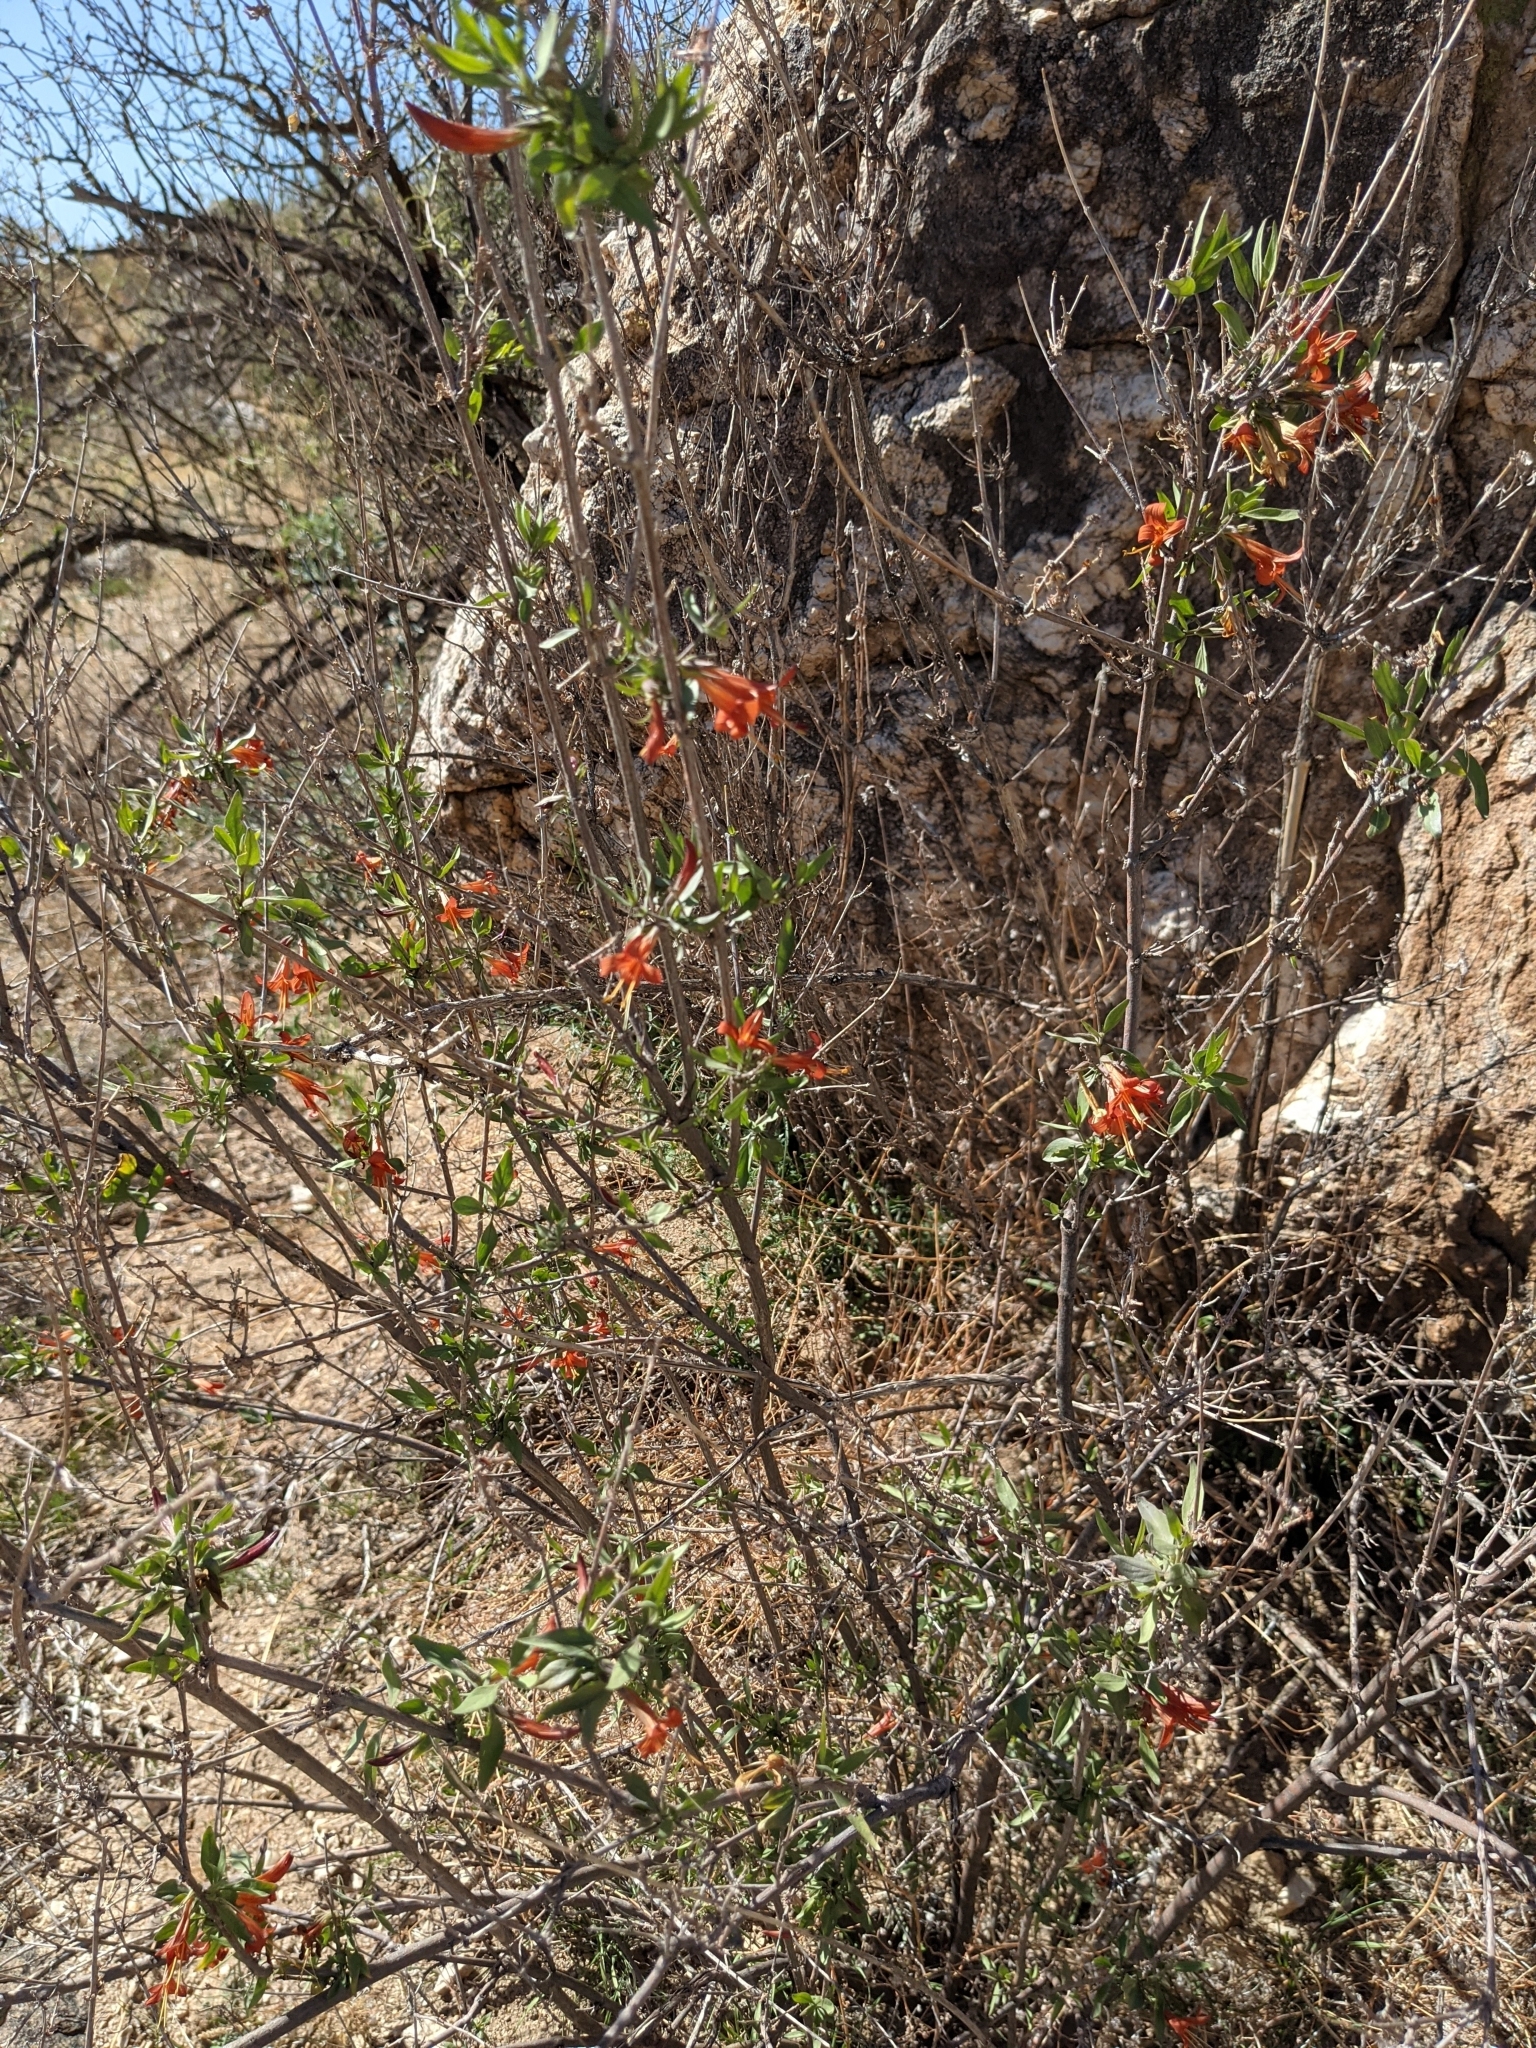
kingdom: Plantae
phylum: Tracheophyta
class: Magnoliopsida
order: Lamiales
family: Acanthaceae
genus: Anisacanthus
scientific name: Anisacanthus thurberi
